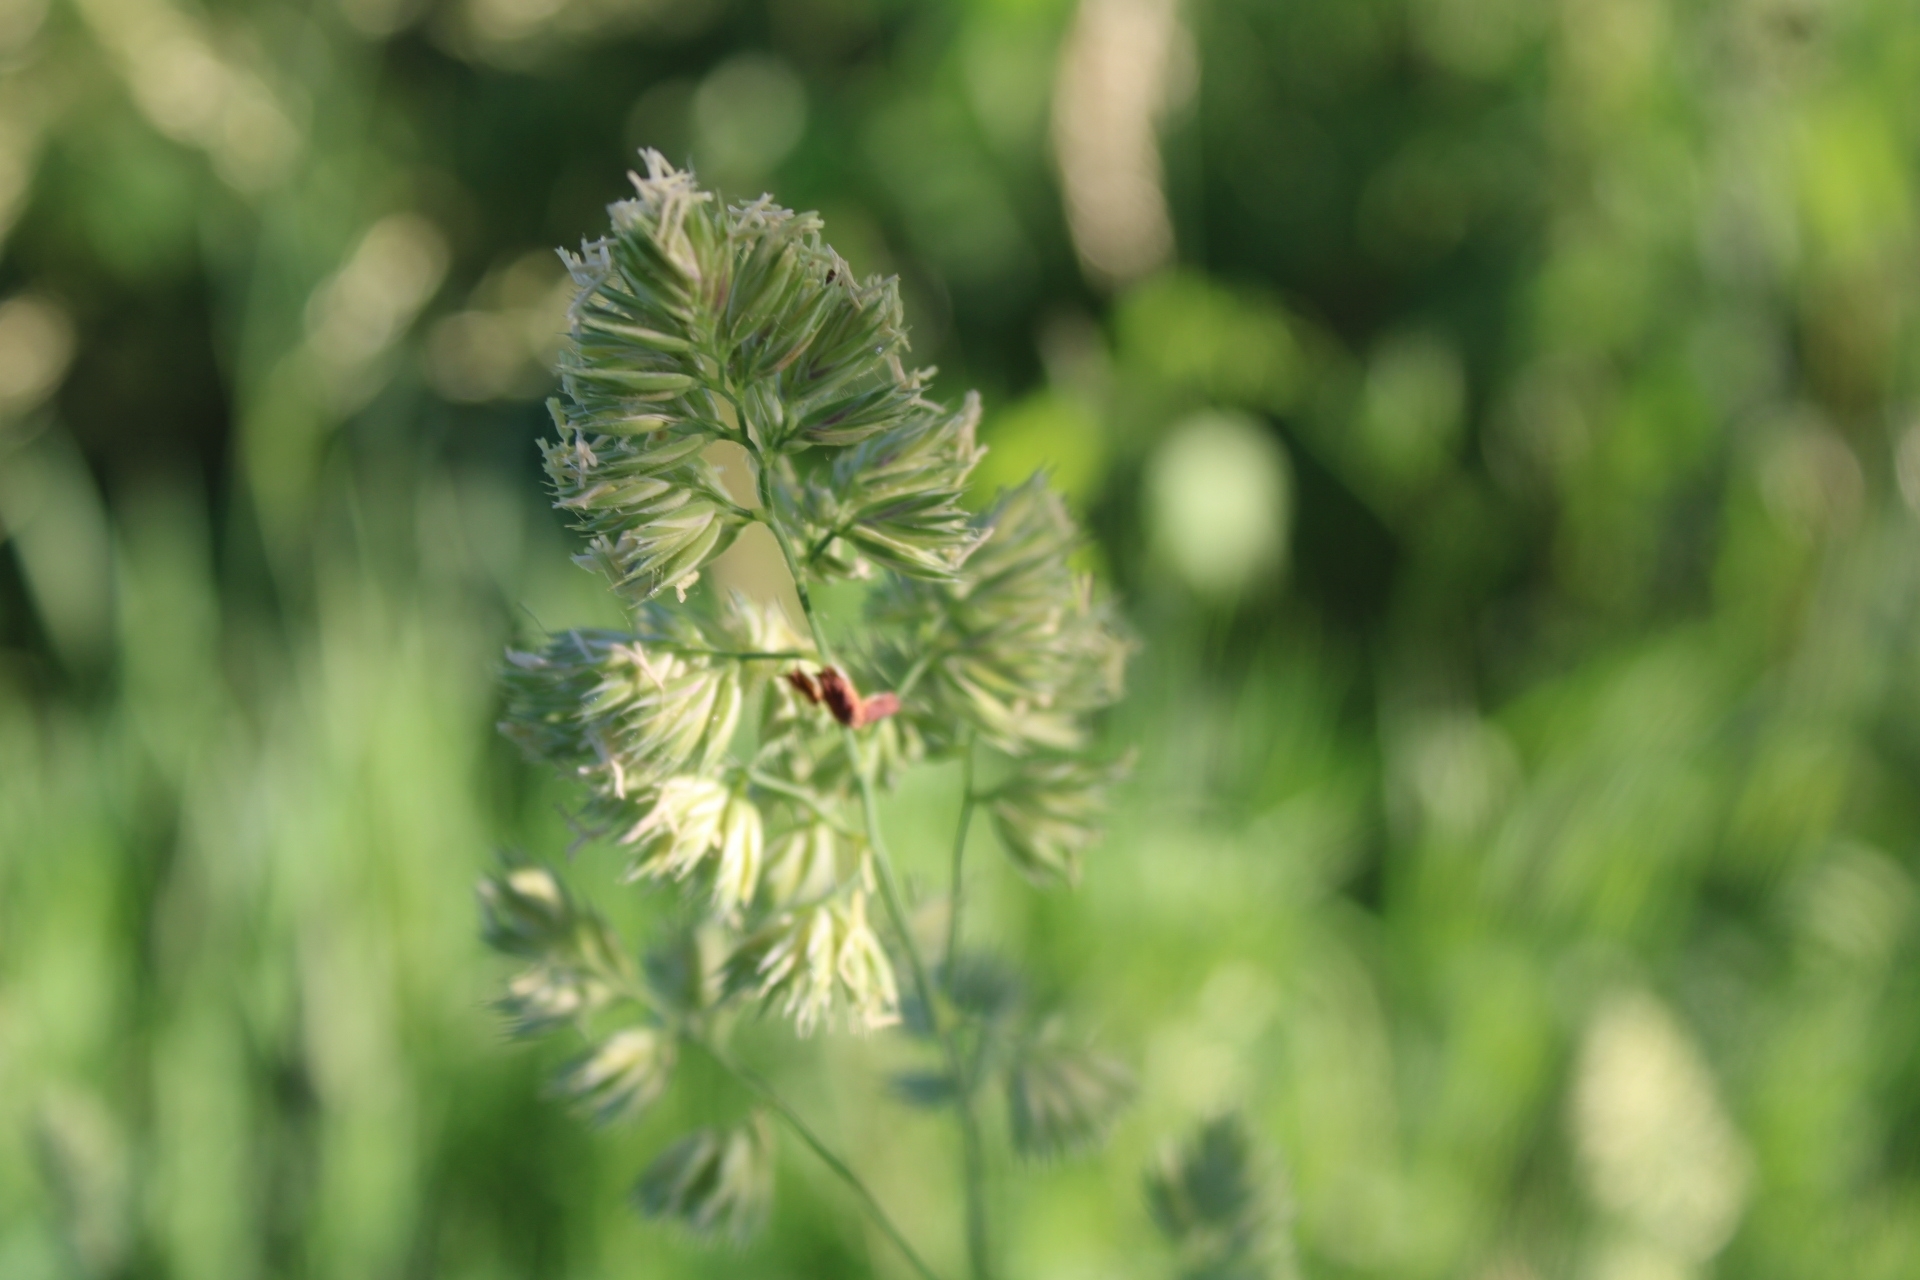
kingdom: Plantae
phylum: Tracheophyta
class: Liliopsida
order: Poales
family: Poaceae
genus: Dactylis
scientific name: Dactylis glomerata
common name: Orchardgrass
